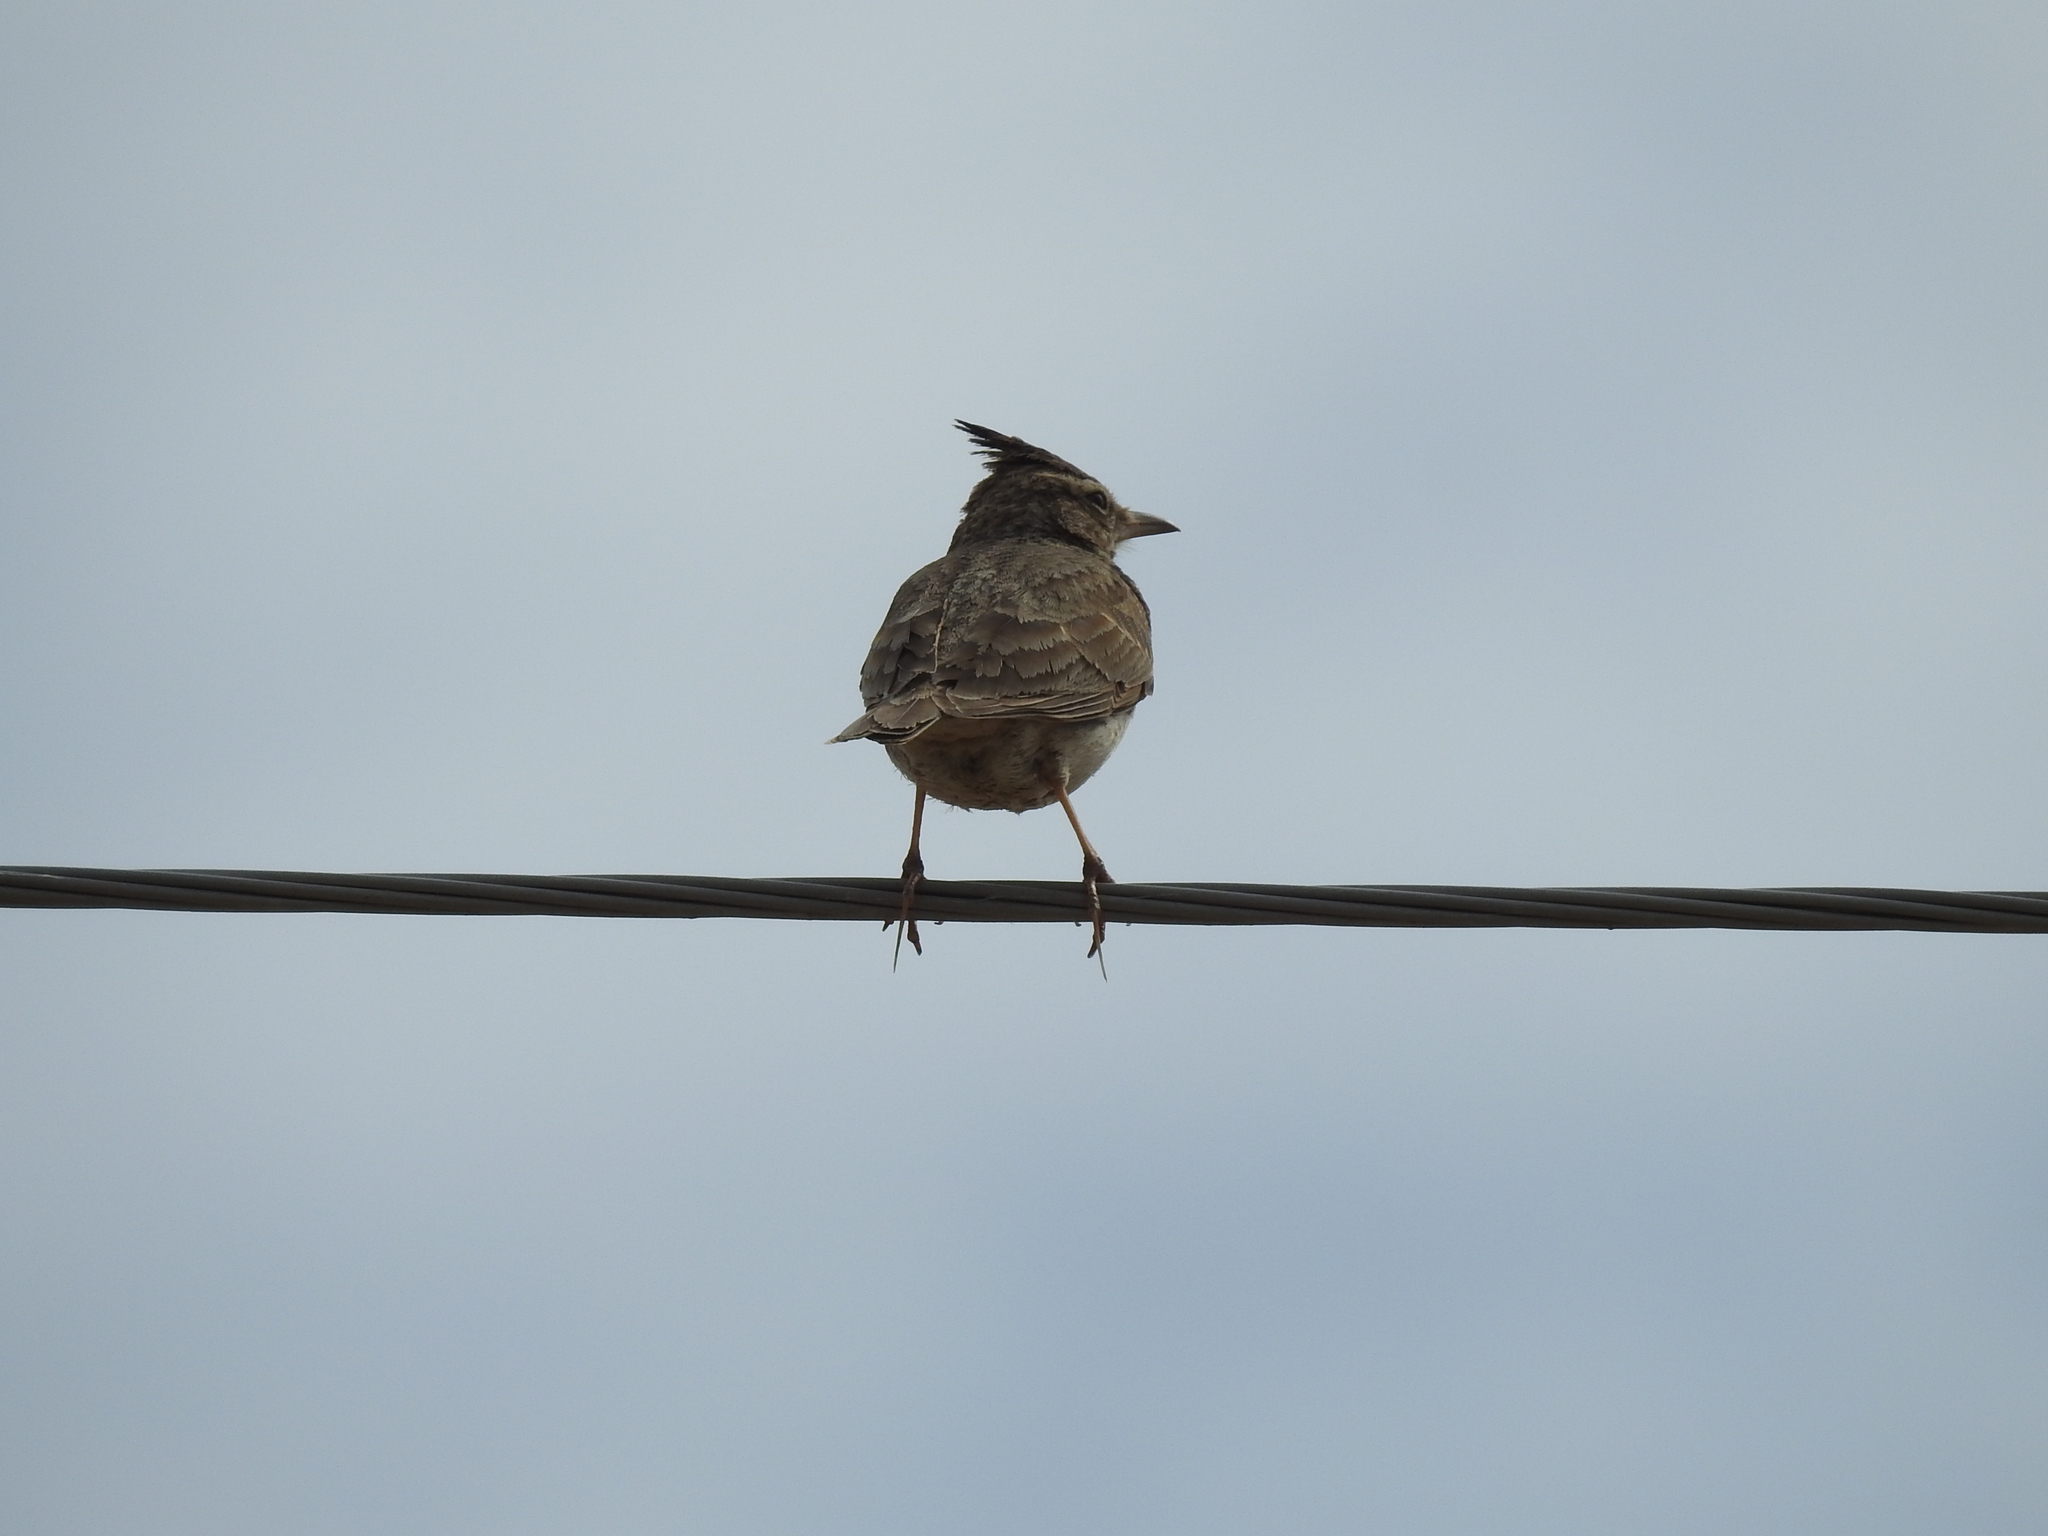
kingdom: Animalia
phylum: Chordata
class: Aves
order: Passeriformes
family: Alaudidae
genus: Galerida
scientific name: Galerida cristata
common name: Crested lark
